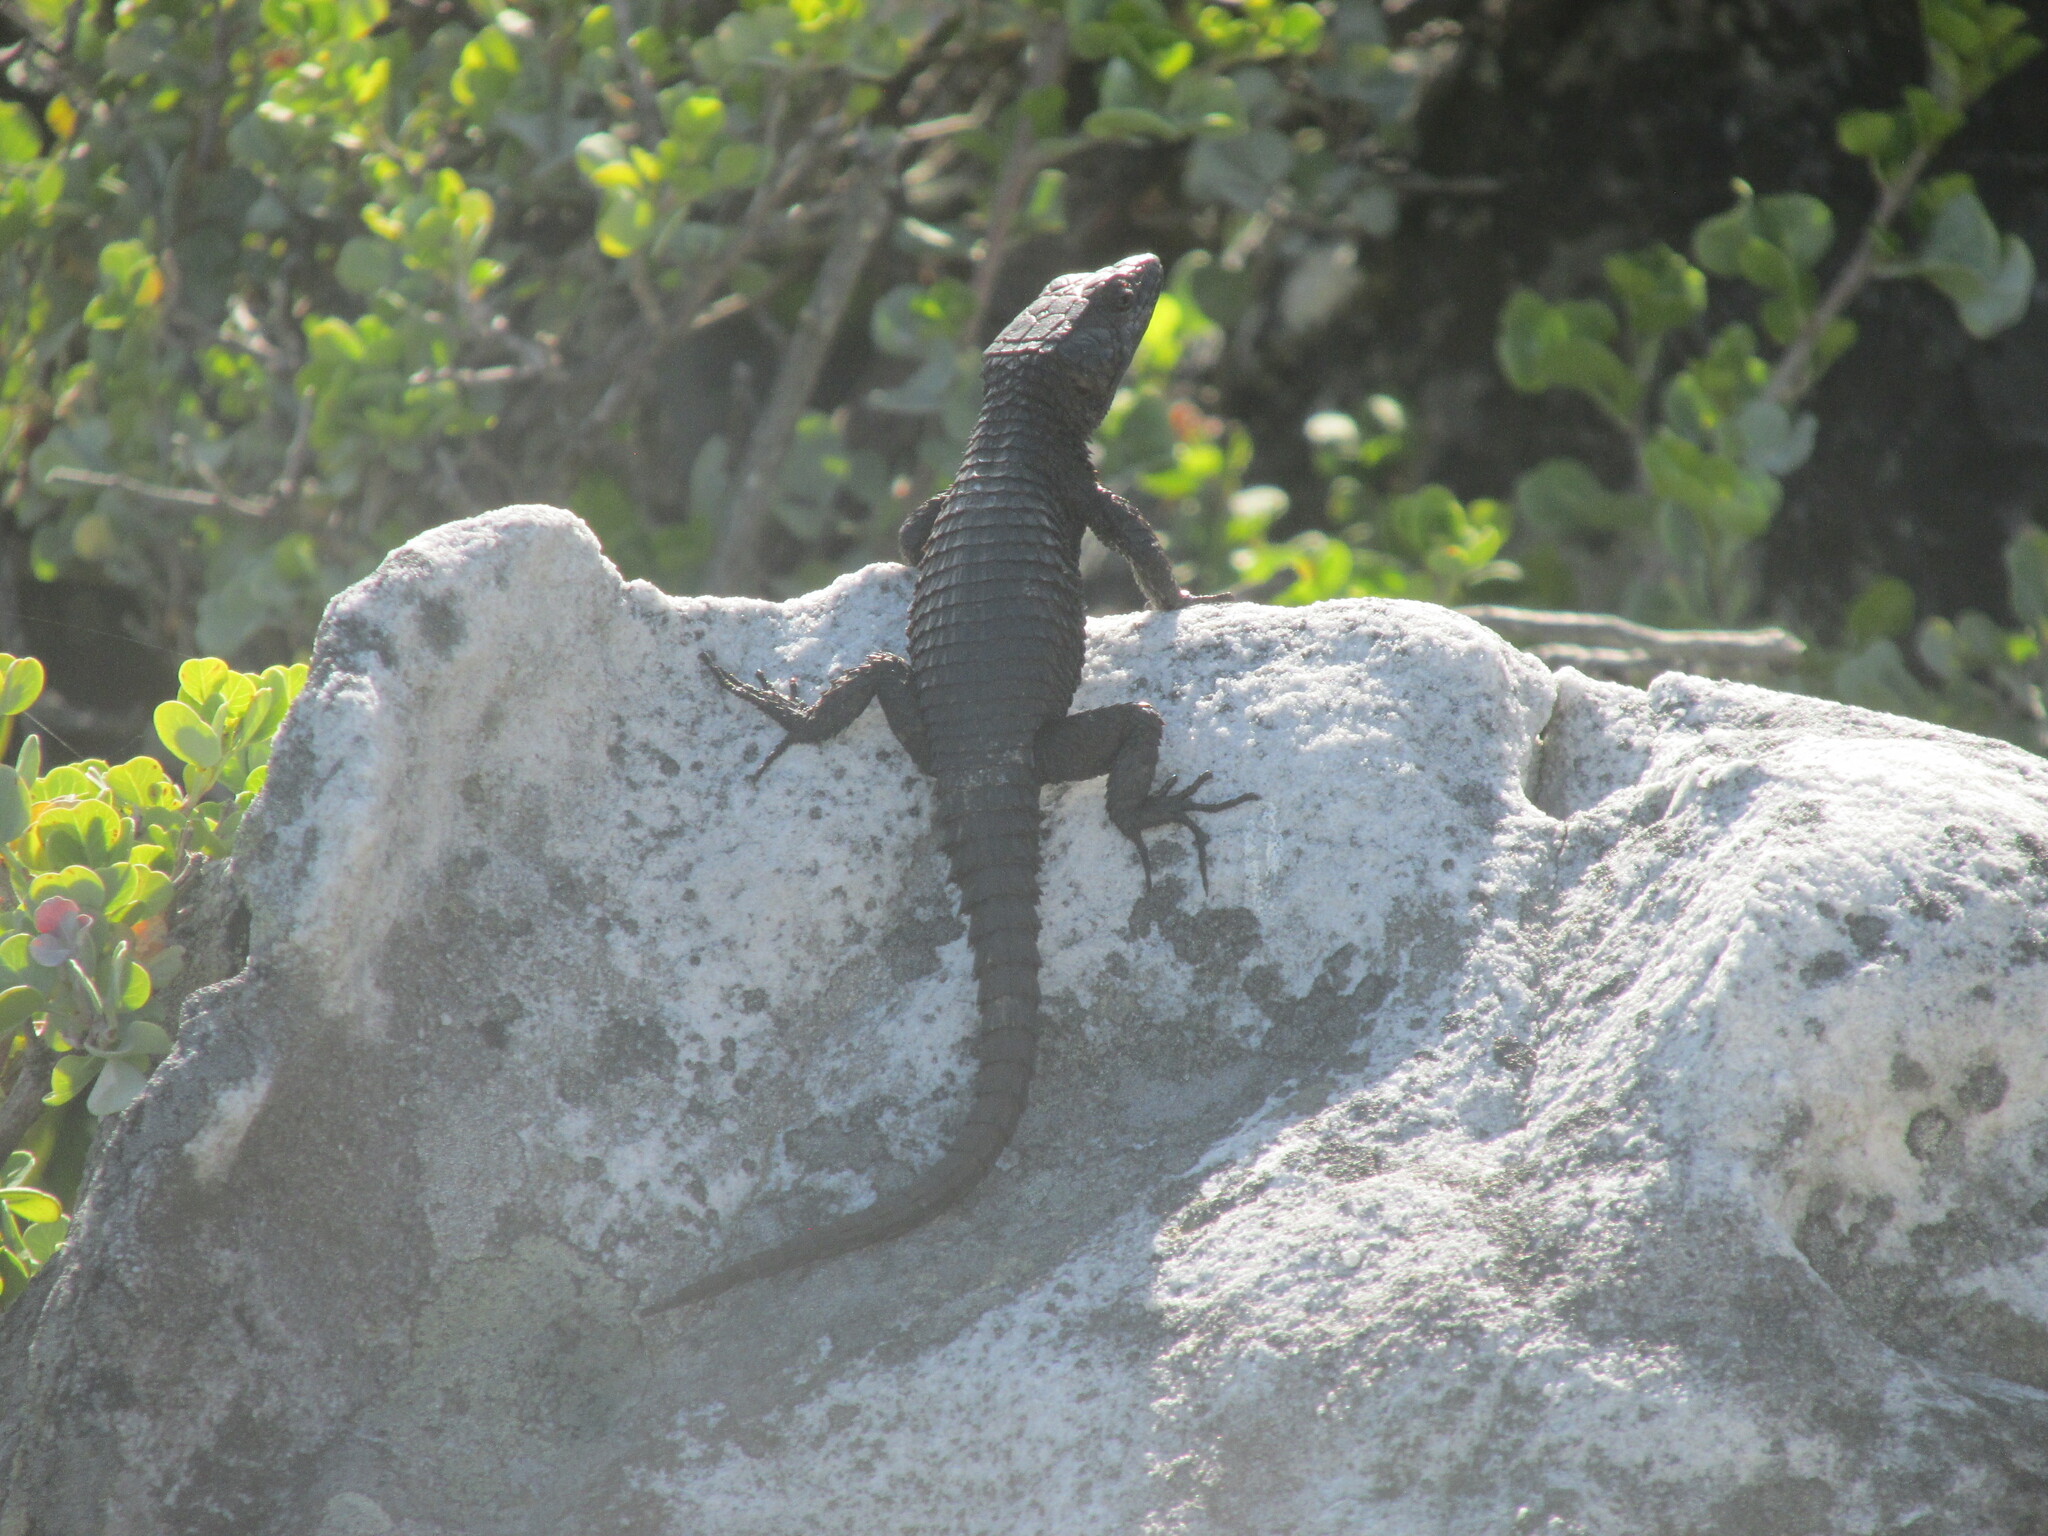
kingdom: Animalia
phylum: Chordata
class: Squamata
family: Cordylidae
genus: Cordylus
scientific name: Cordylus niger
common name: Black girdled lizard
